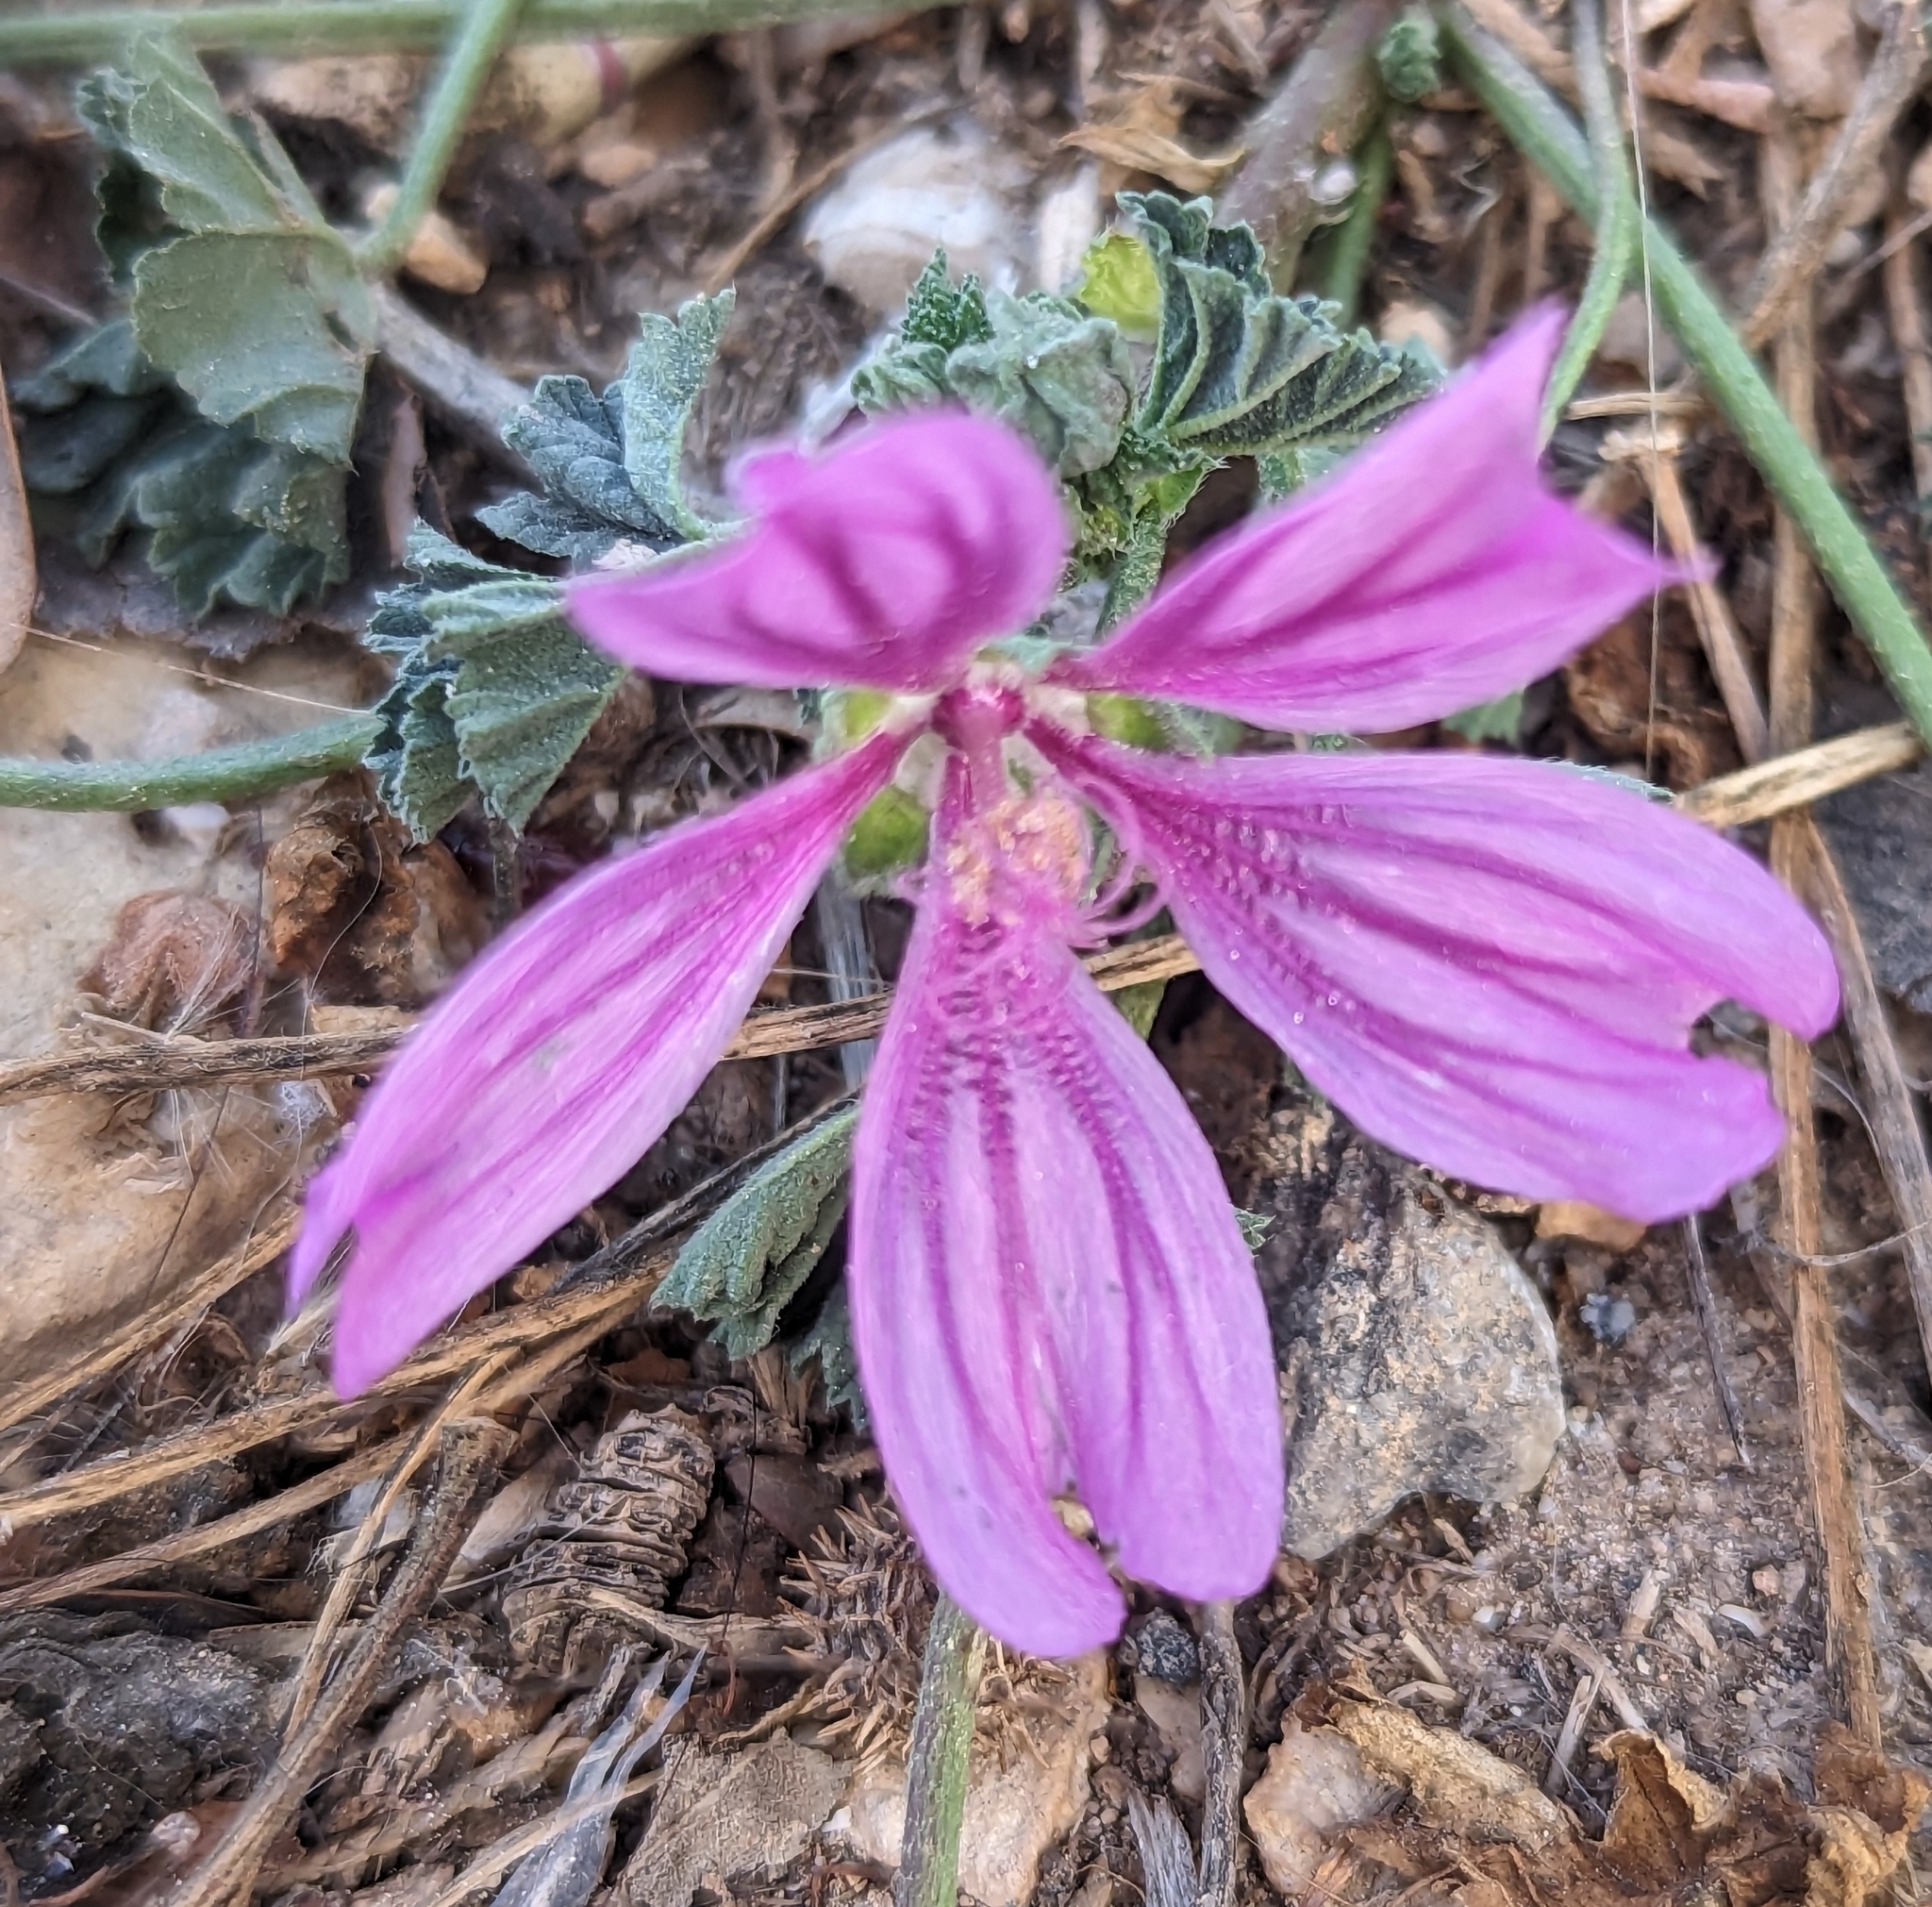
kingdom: Plantae
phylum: Tracheophyta
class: Magnoliopsida
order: Malvales
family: Malvaceae
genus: Malva
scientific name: Malva sylvestris
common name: Common mallow
